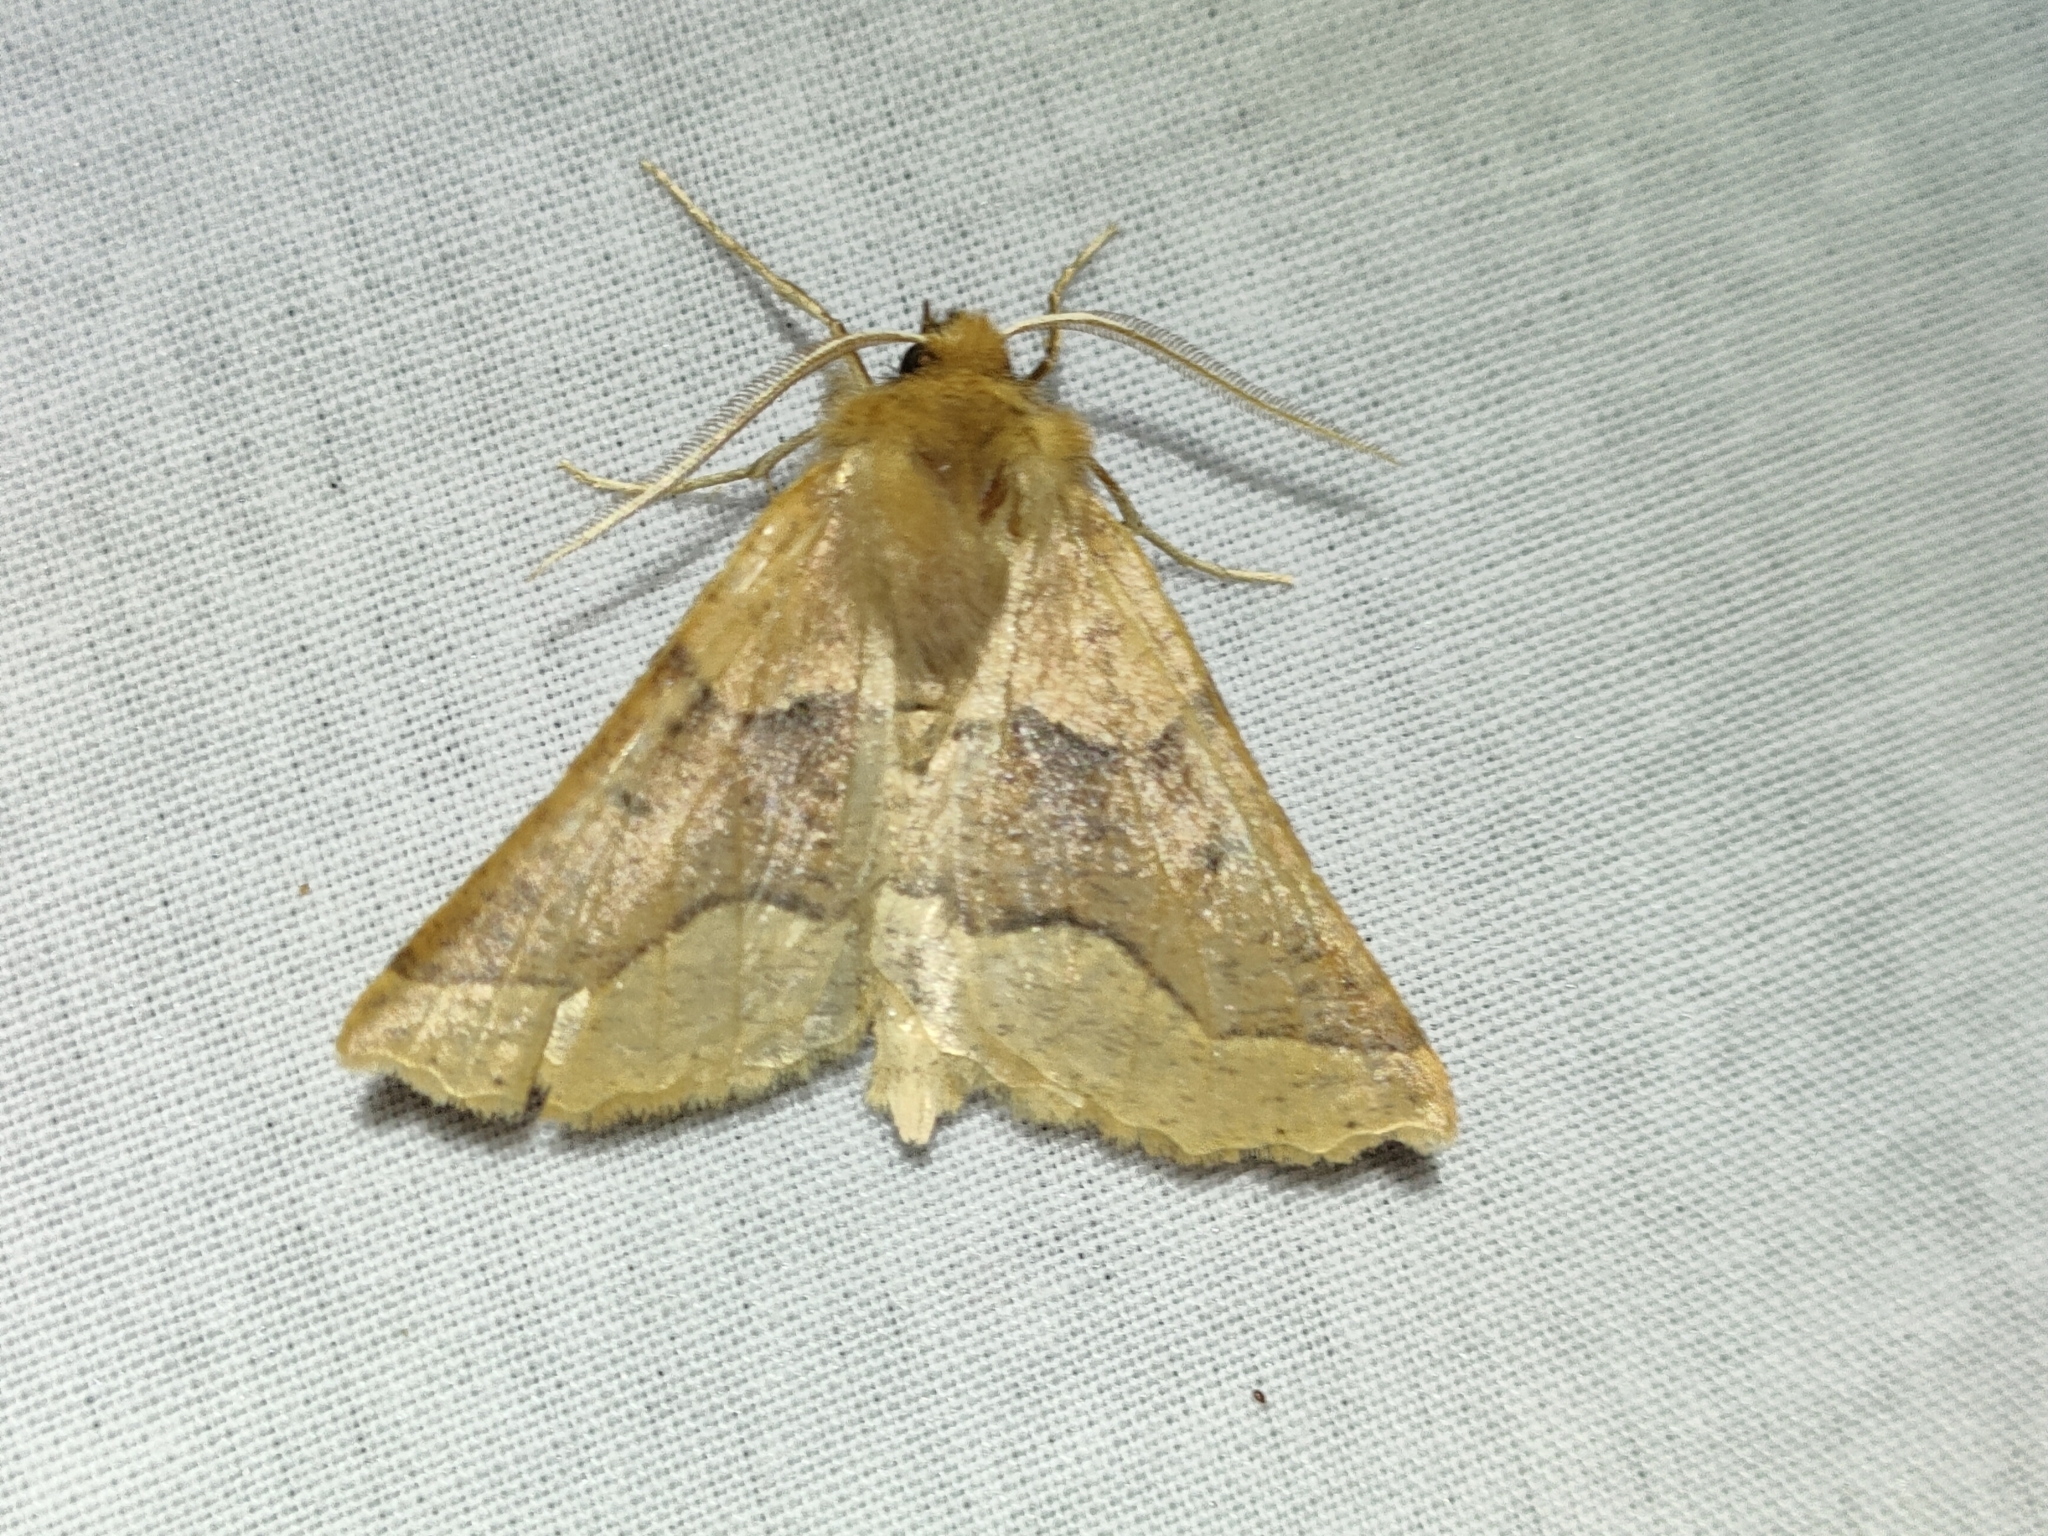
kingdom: Animalia
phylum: Arthropoda
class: Insecta
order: Lepidoptera
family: Geometridae
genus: Crocallis
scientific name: Crocallis tusciaria
